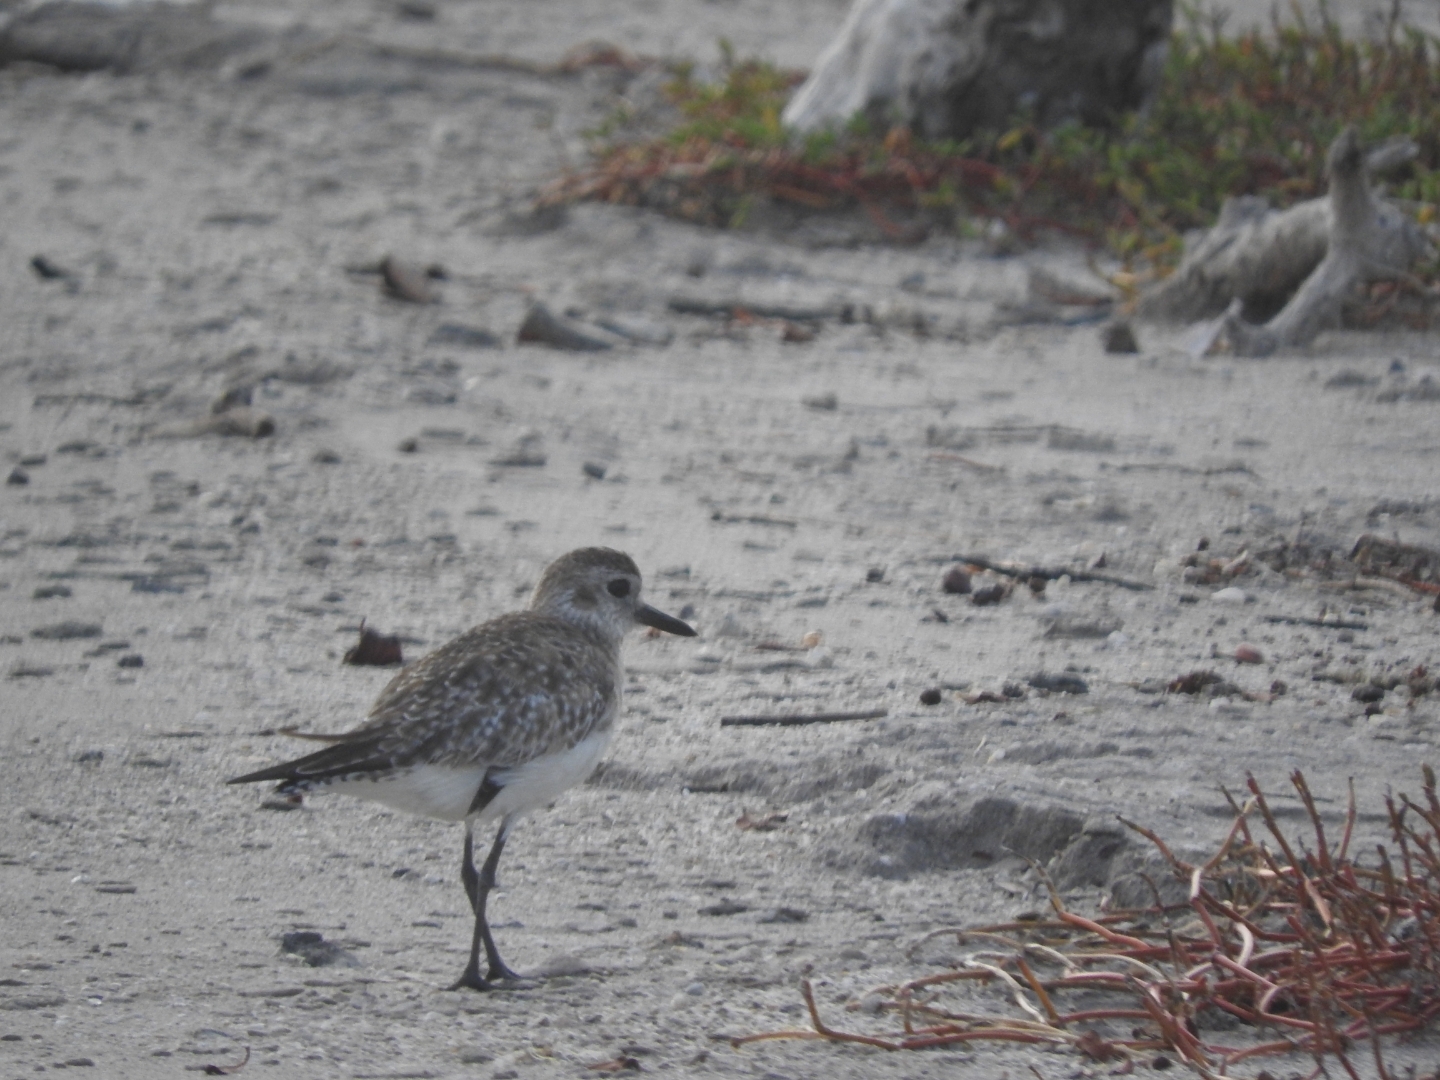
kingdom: Animalia
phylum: Chordata
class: Aves
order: Charadriiformes
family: Charadriidae
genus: Pluvialis
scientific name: Pluvialis squatarola
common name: Grey plover
